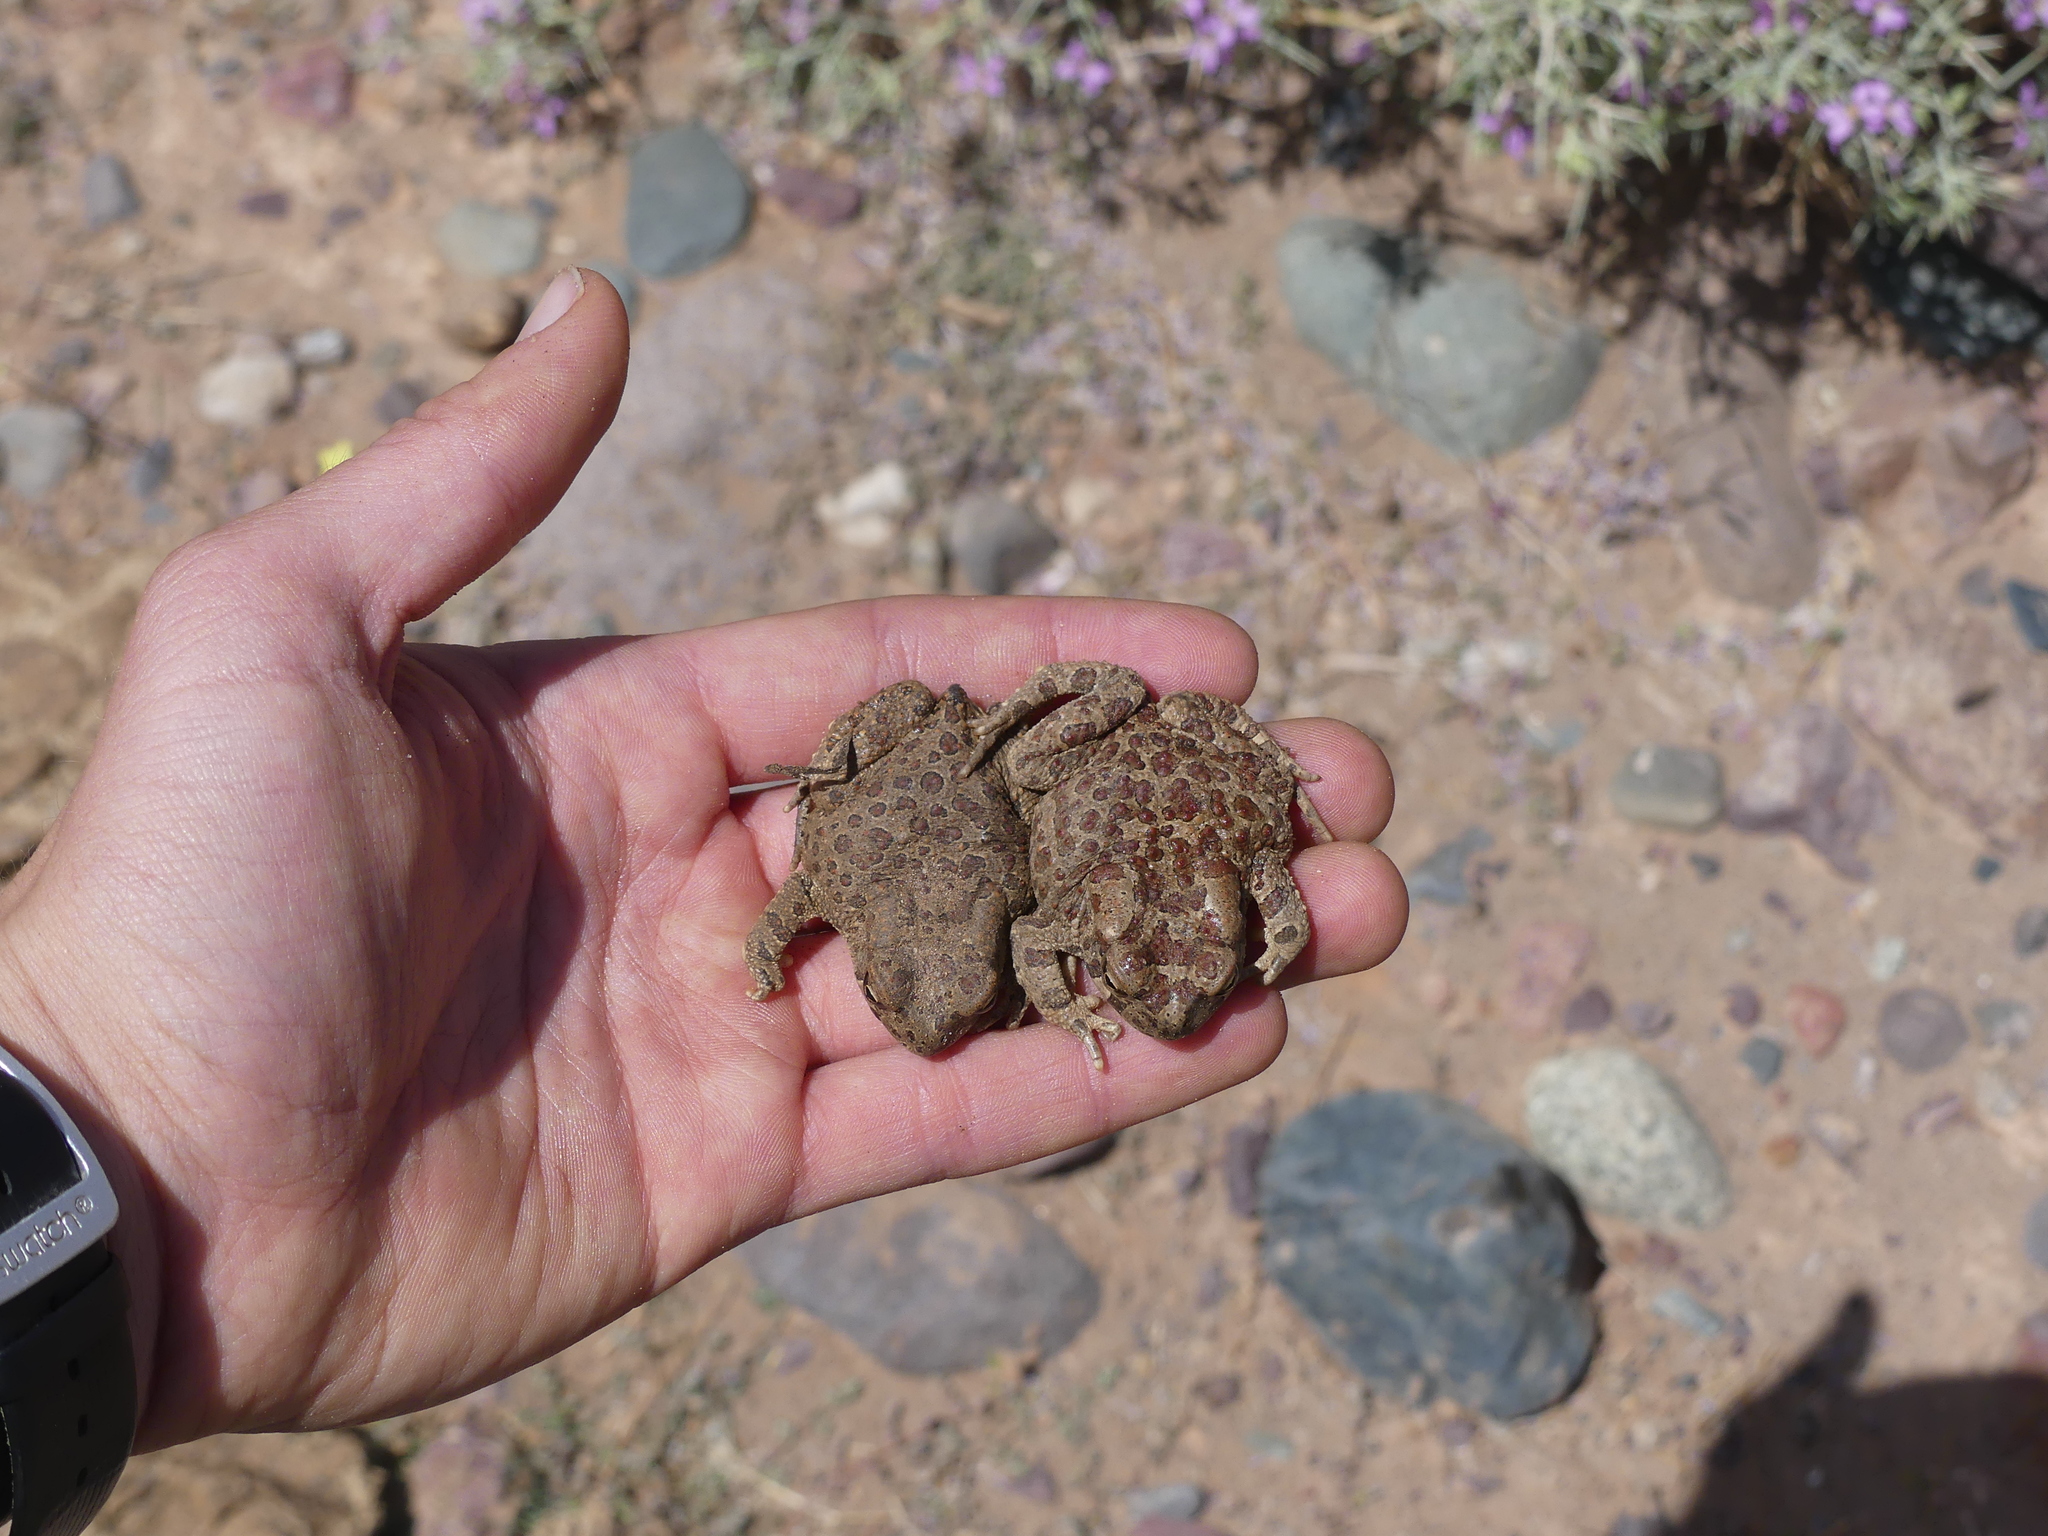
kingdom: Animalia
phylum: Chordata
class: Amphibia
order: Anura
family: Bufonidae
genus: Sclerophrys
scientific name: Sclerophrys mauritanica
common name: Berber toad
